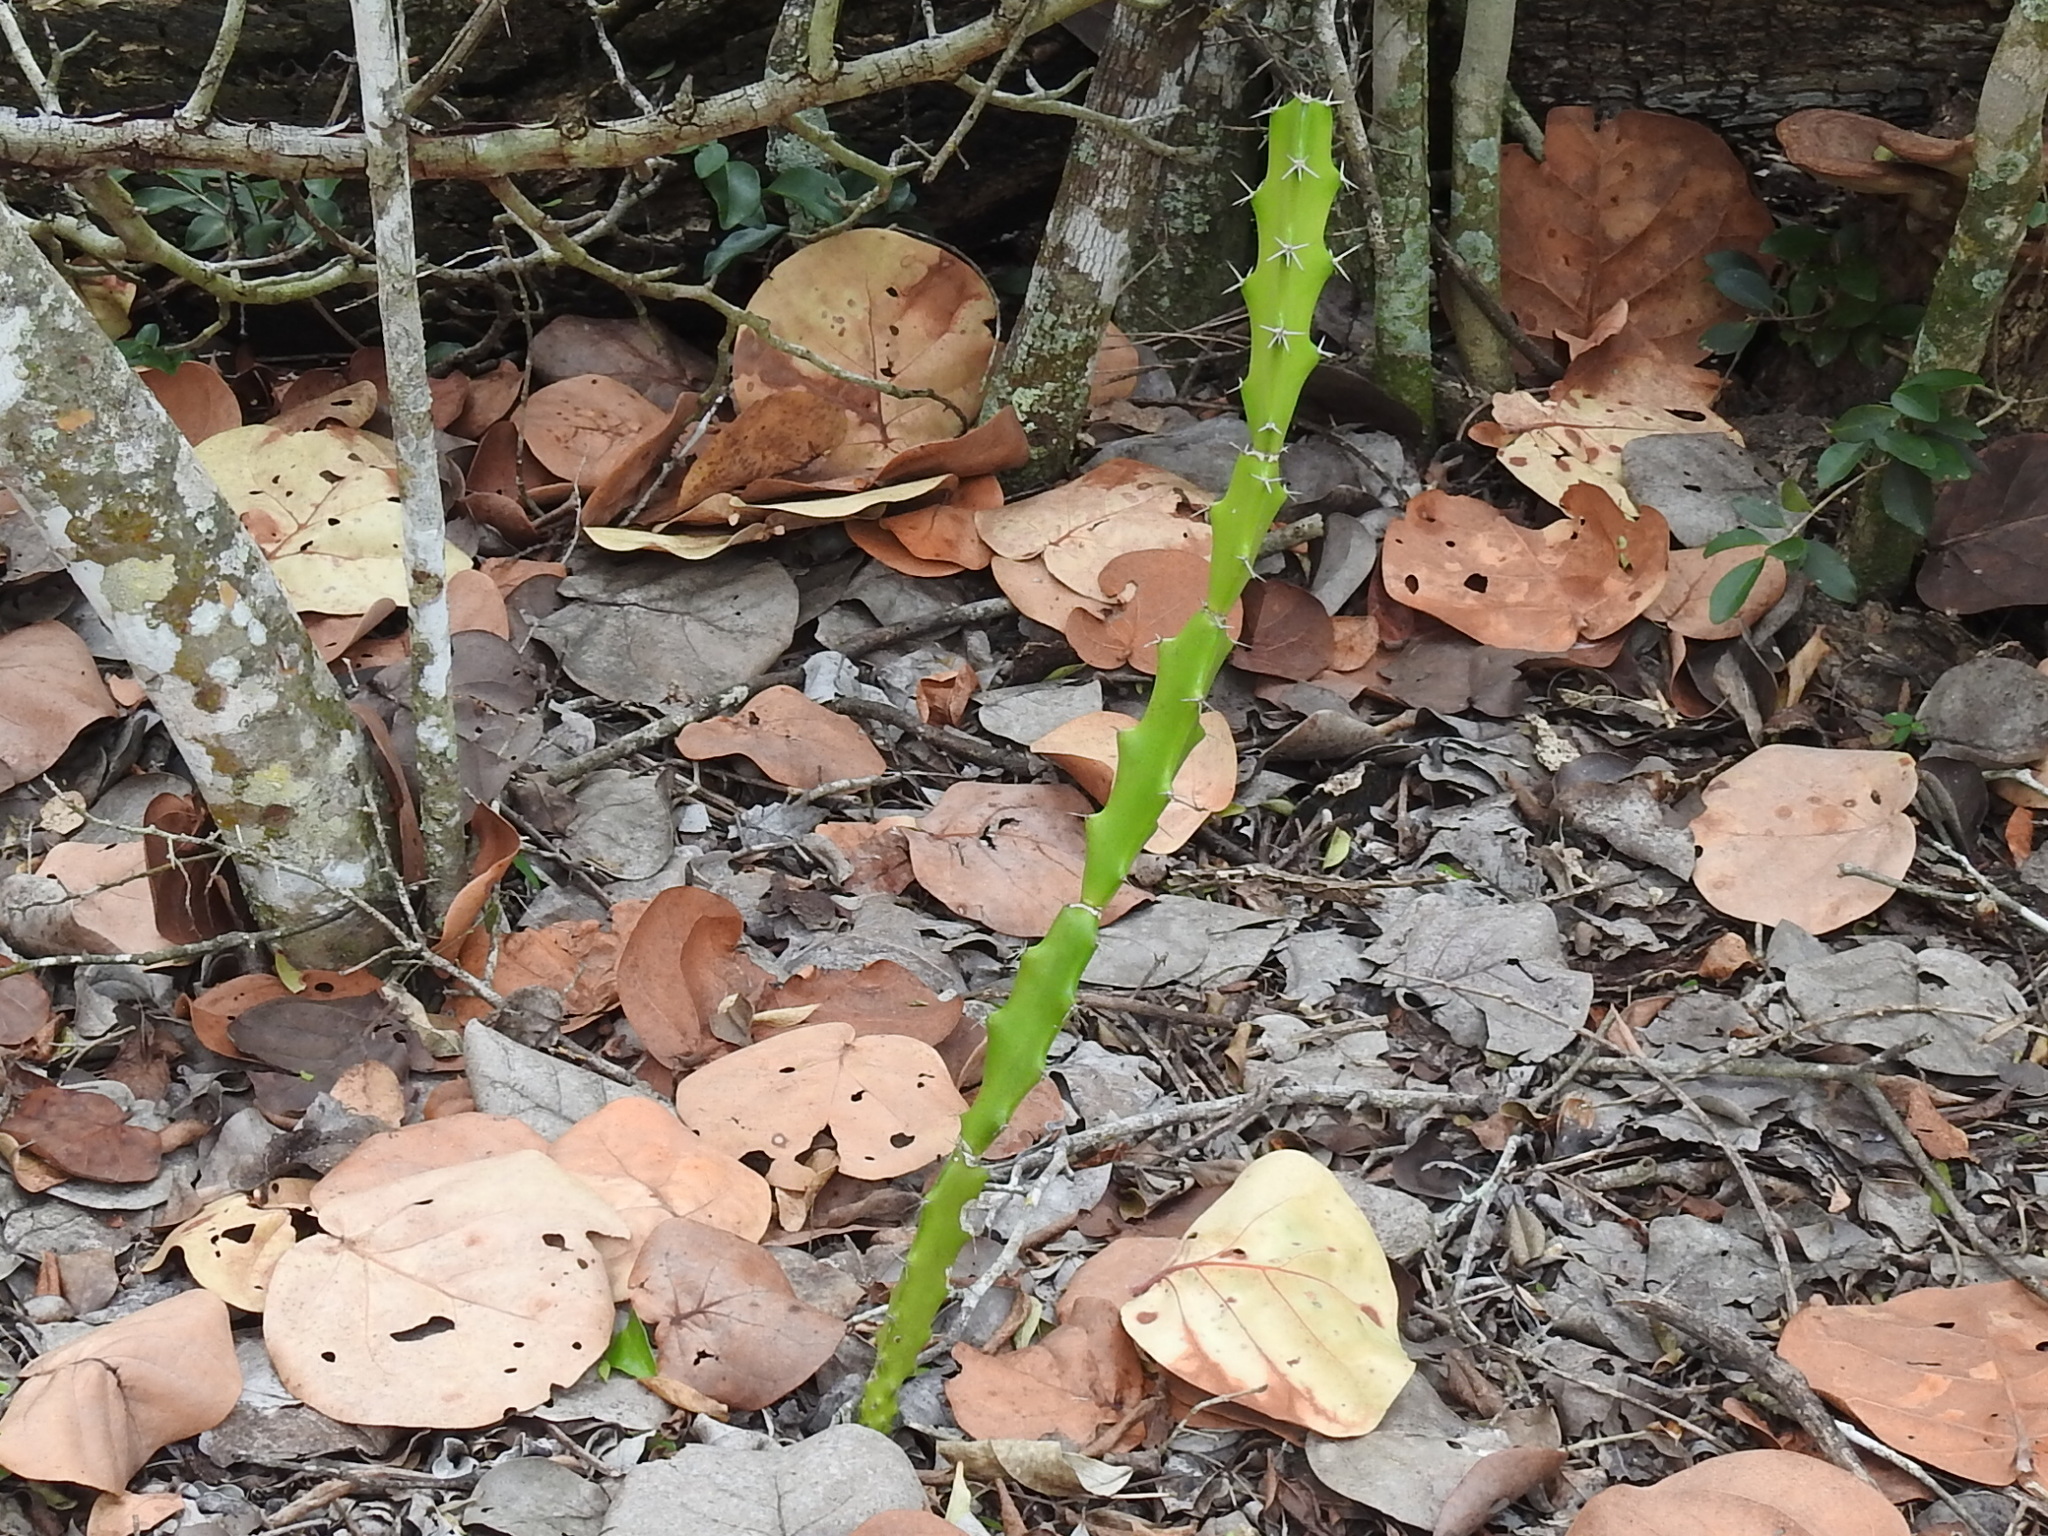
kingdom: Plantae
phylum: Tracheophyta
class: Magnoliopsida
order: Caryophyllales
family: Cactaceae
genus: Acanthocereus
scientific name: Acanthocereus tetragonus
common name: Triangle cactus
